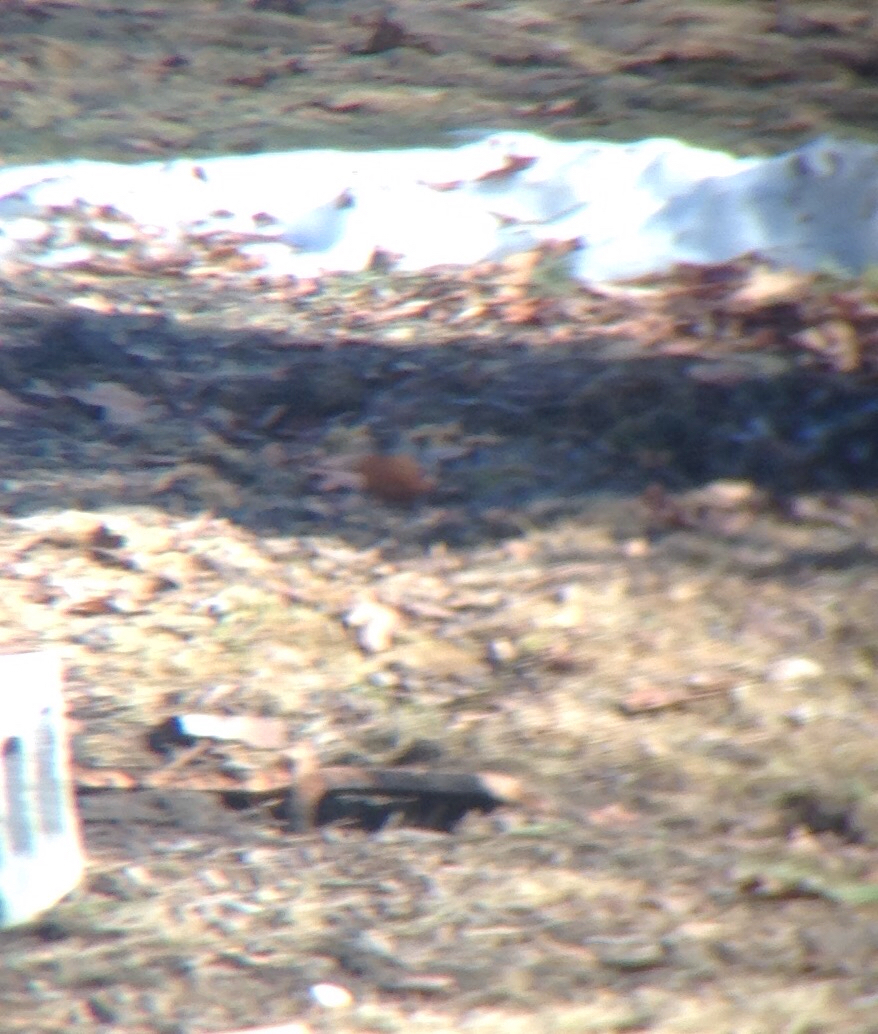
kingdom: Animalia
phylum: Chordata
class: Aves
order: Passeriformes
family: Turdidae
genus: Turdus
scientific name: Turdus migratorius
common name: American robin
